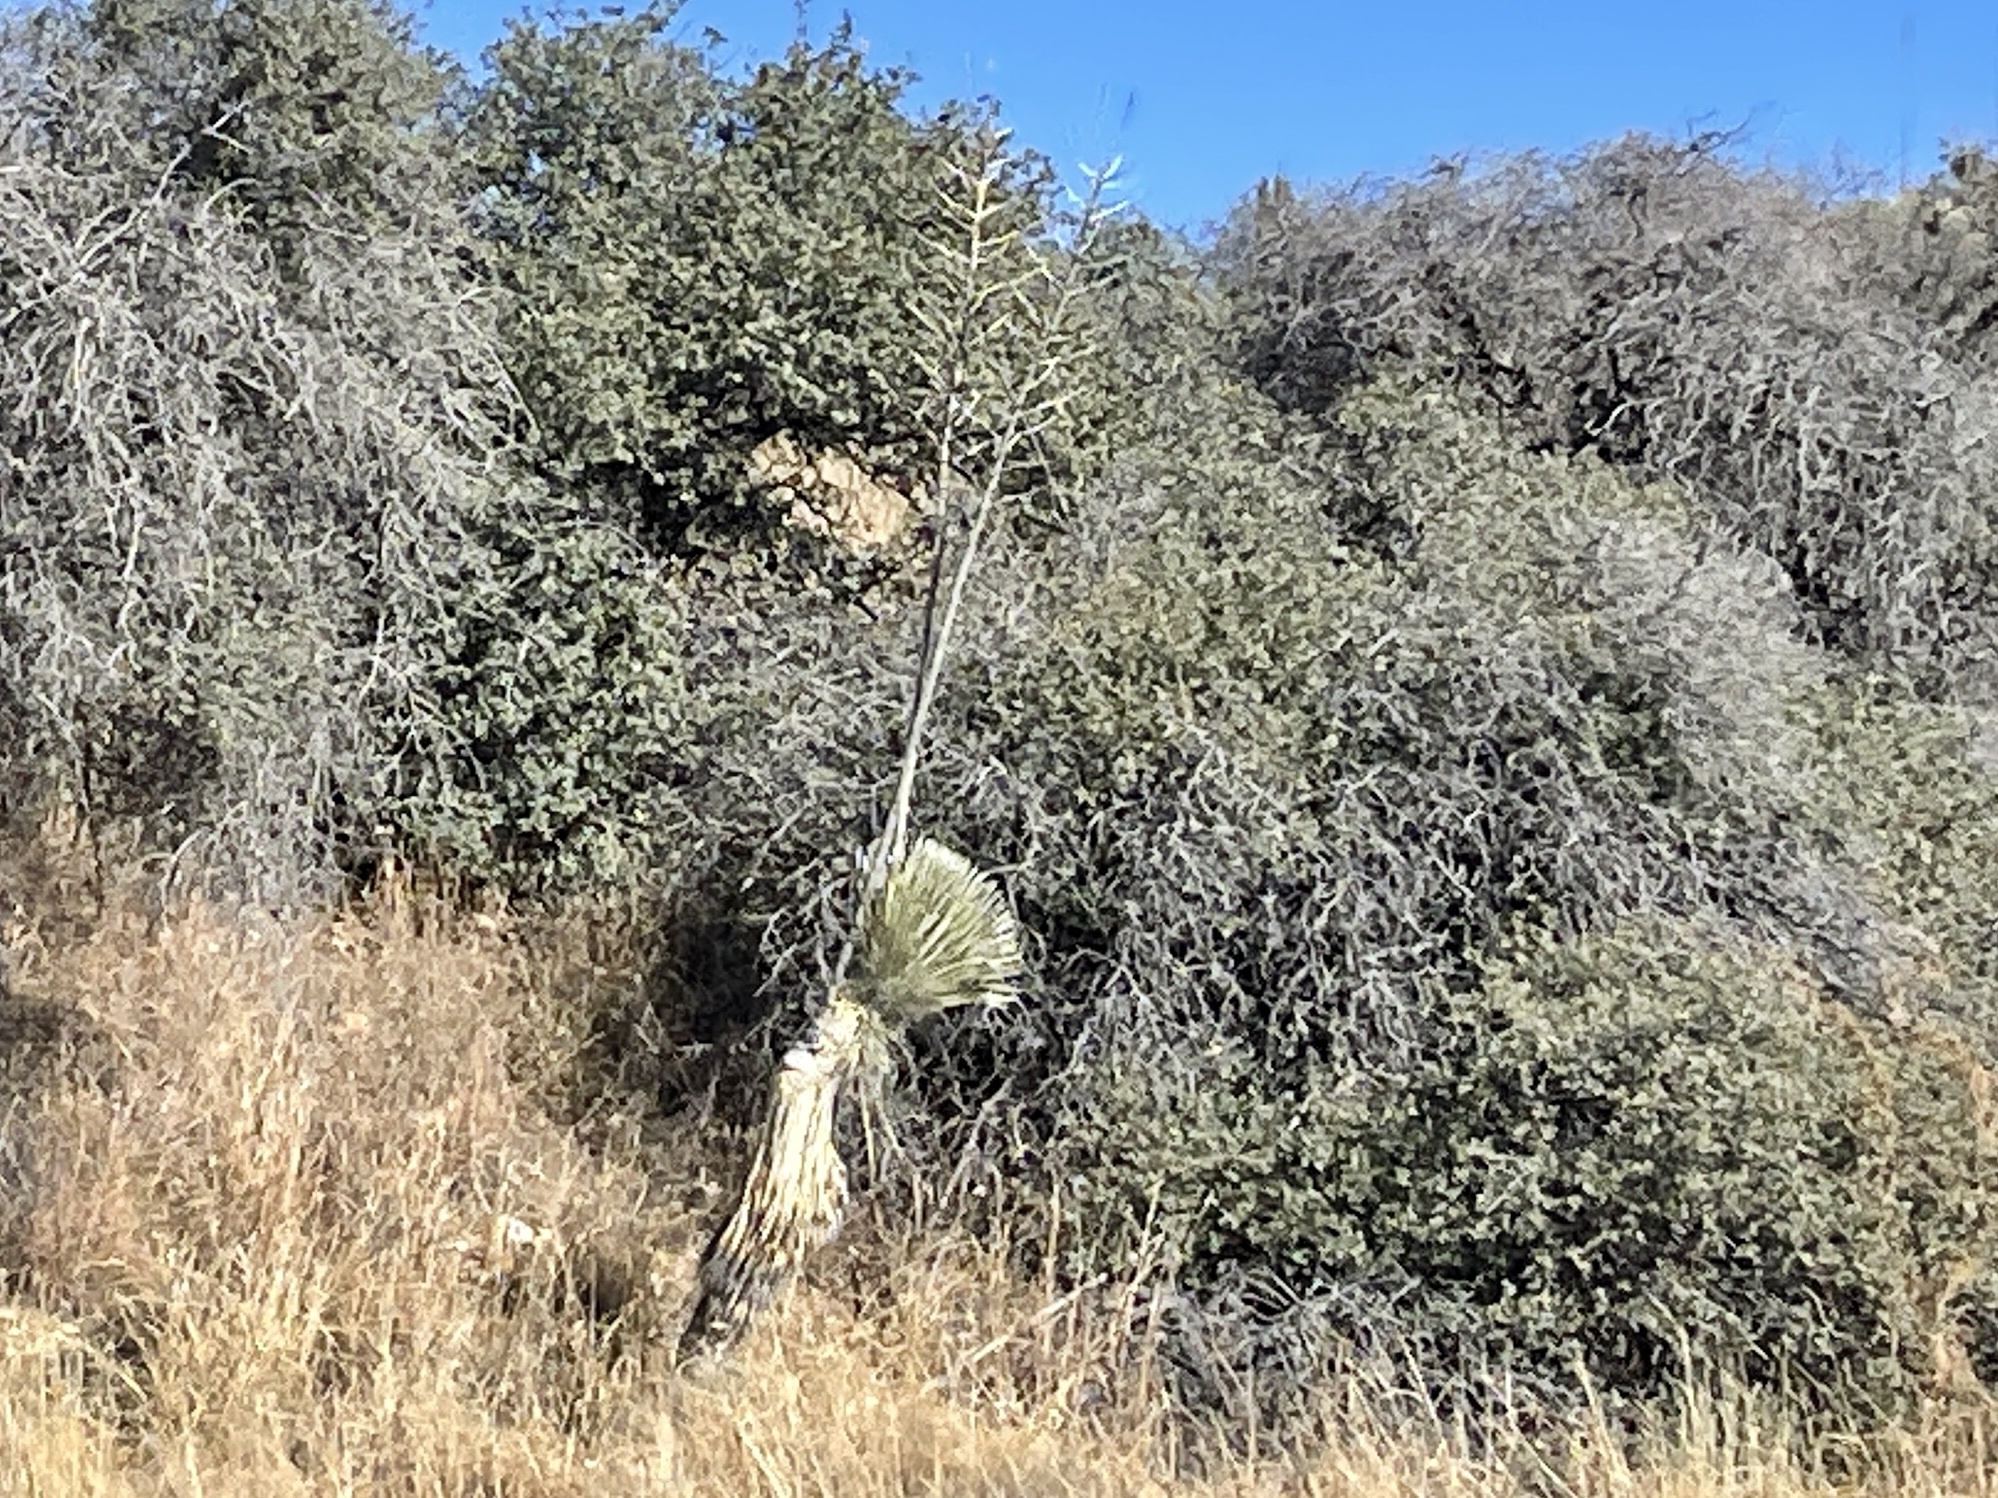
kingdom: Plantae
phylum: Tracheophyta
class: Liliopsida
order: Asparagales
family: Asparagaceae
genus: Yucca
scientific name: Yucca elata
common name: Palmella
